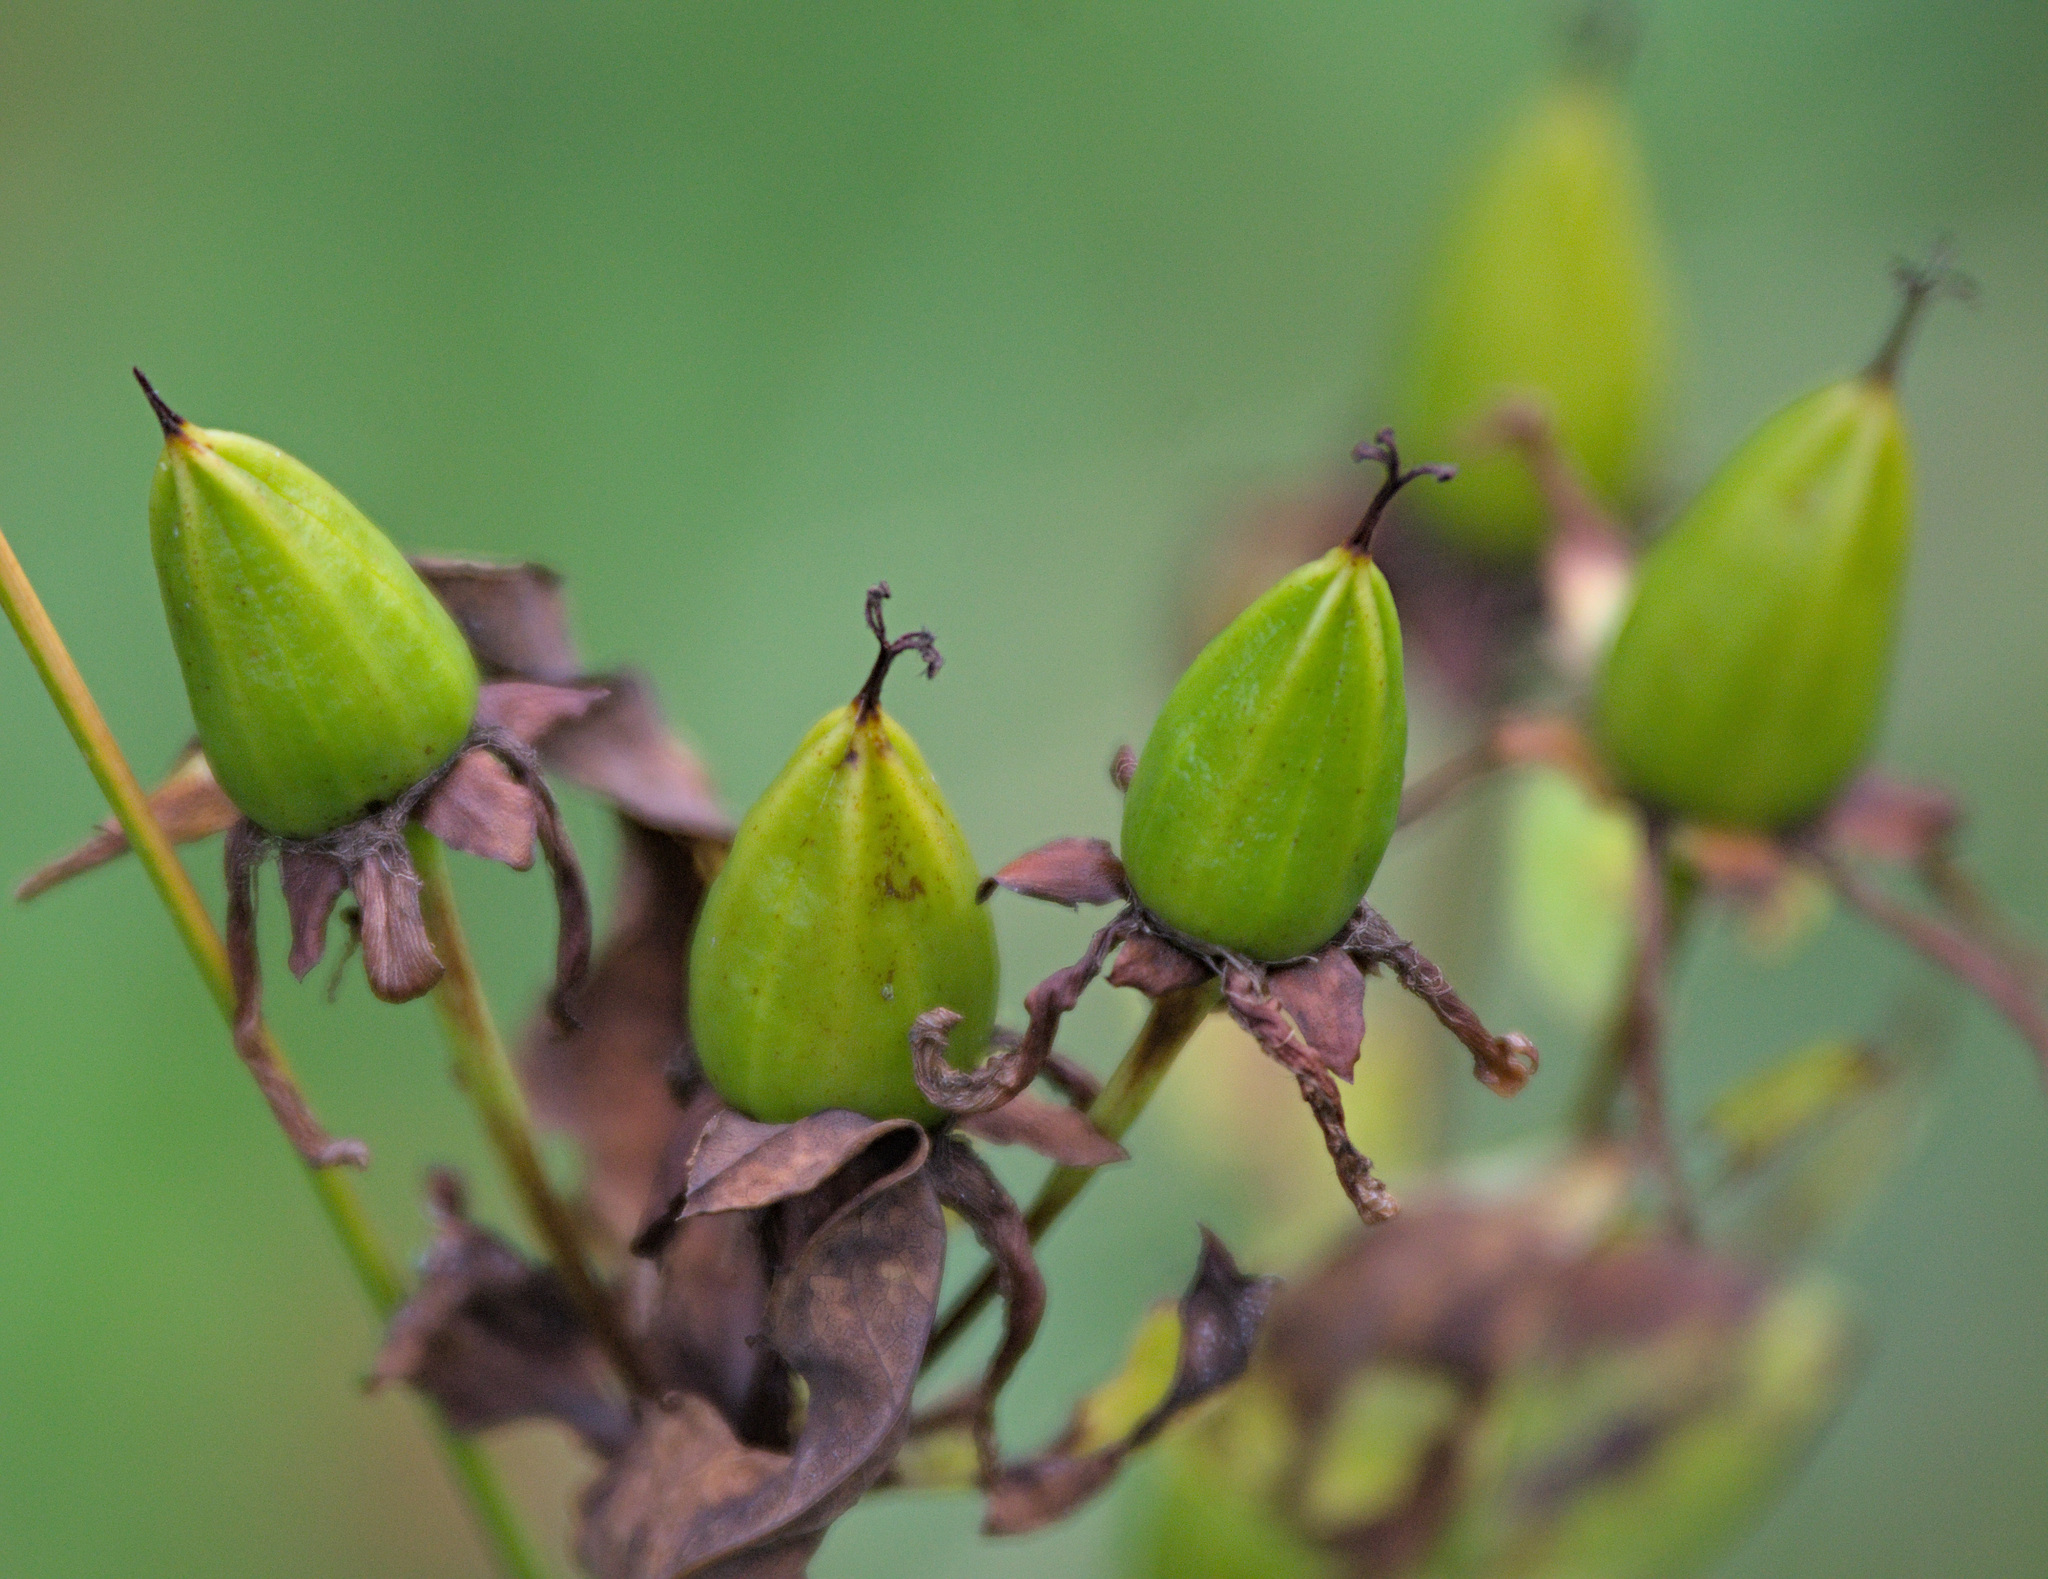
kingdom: Plantae
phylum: Tracheophyta
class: Magnoliopsida
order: Malpighiales
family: Hypericaceae
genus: Hypericum
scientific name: Hypericum ascyron
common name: Giant st. john's-wort
